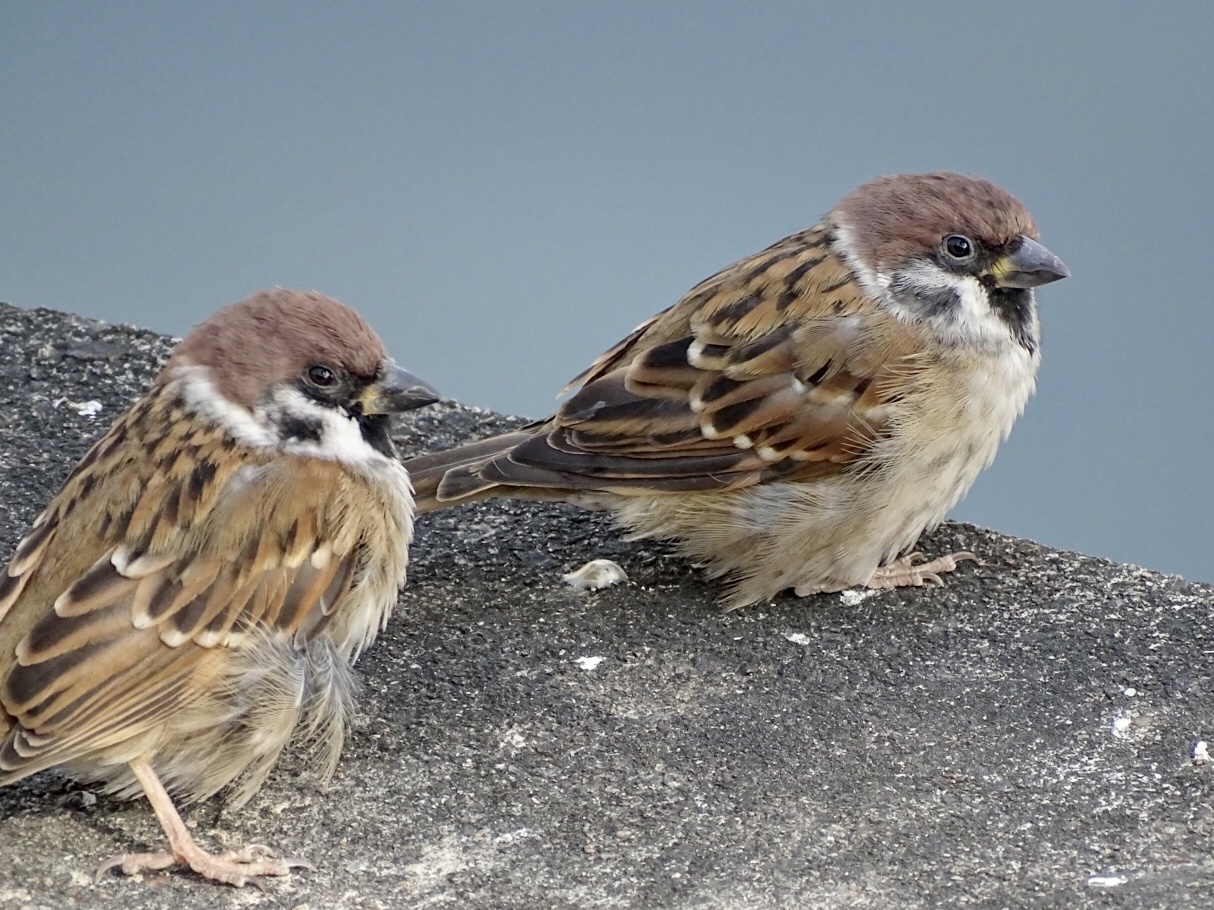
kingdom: Animalia
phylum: Chordata
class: Aves
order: Passeriformes
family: Passeridae
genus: Passer
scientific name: Passer montanus
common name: Eurasian tree sparrow
